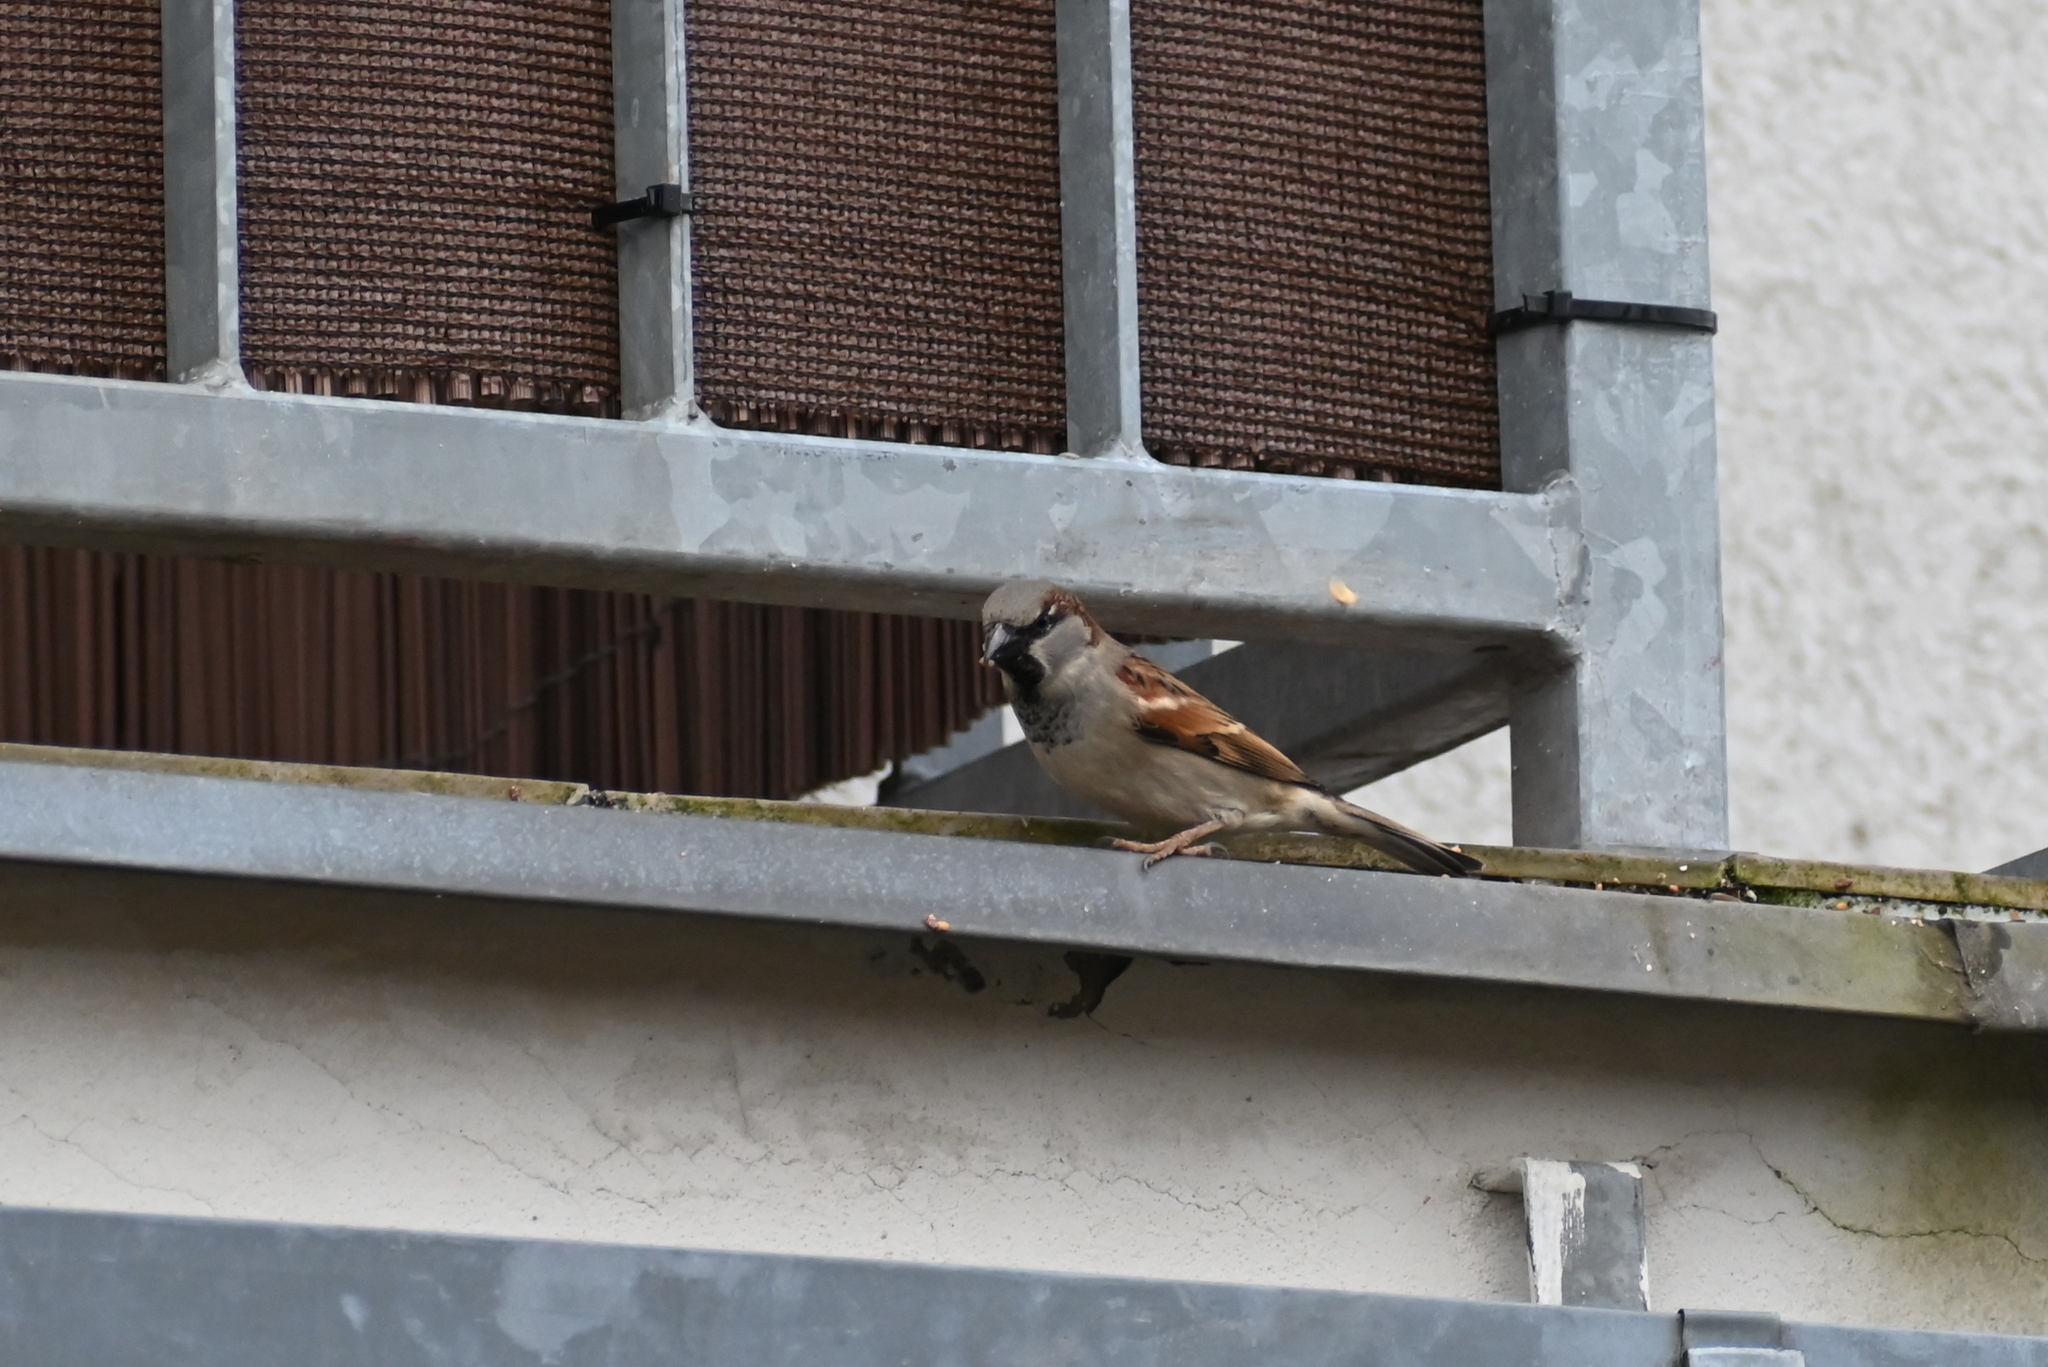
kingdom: Animalia
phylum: Chordata
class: Aves
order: Passeriformes
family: Passeridae
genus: Passer
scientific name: Passer domesticus
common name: House sparrow
